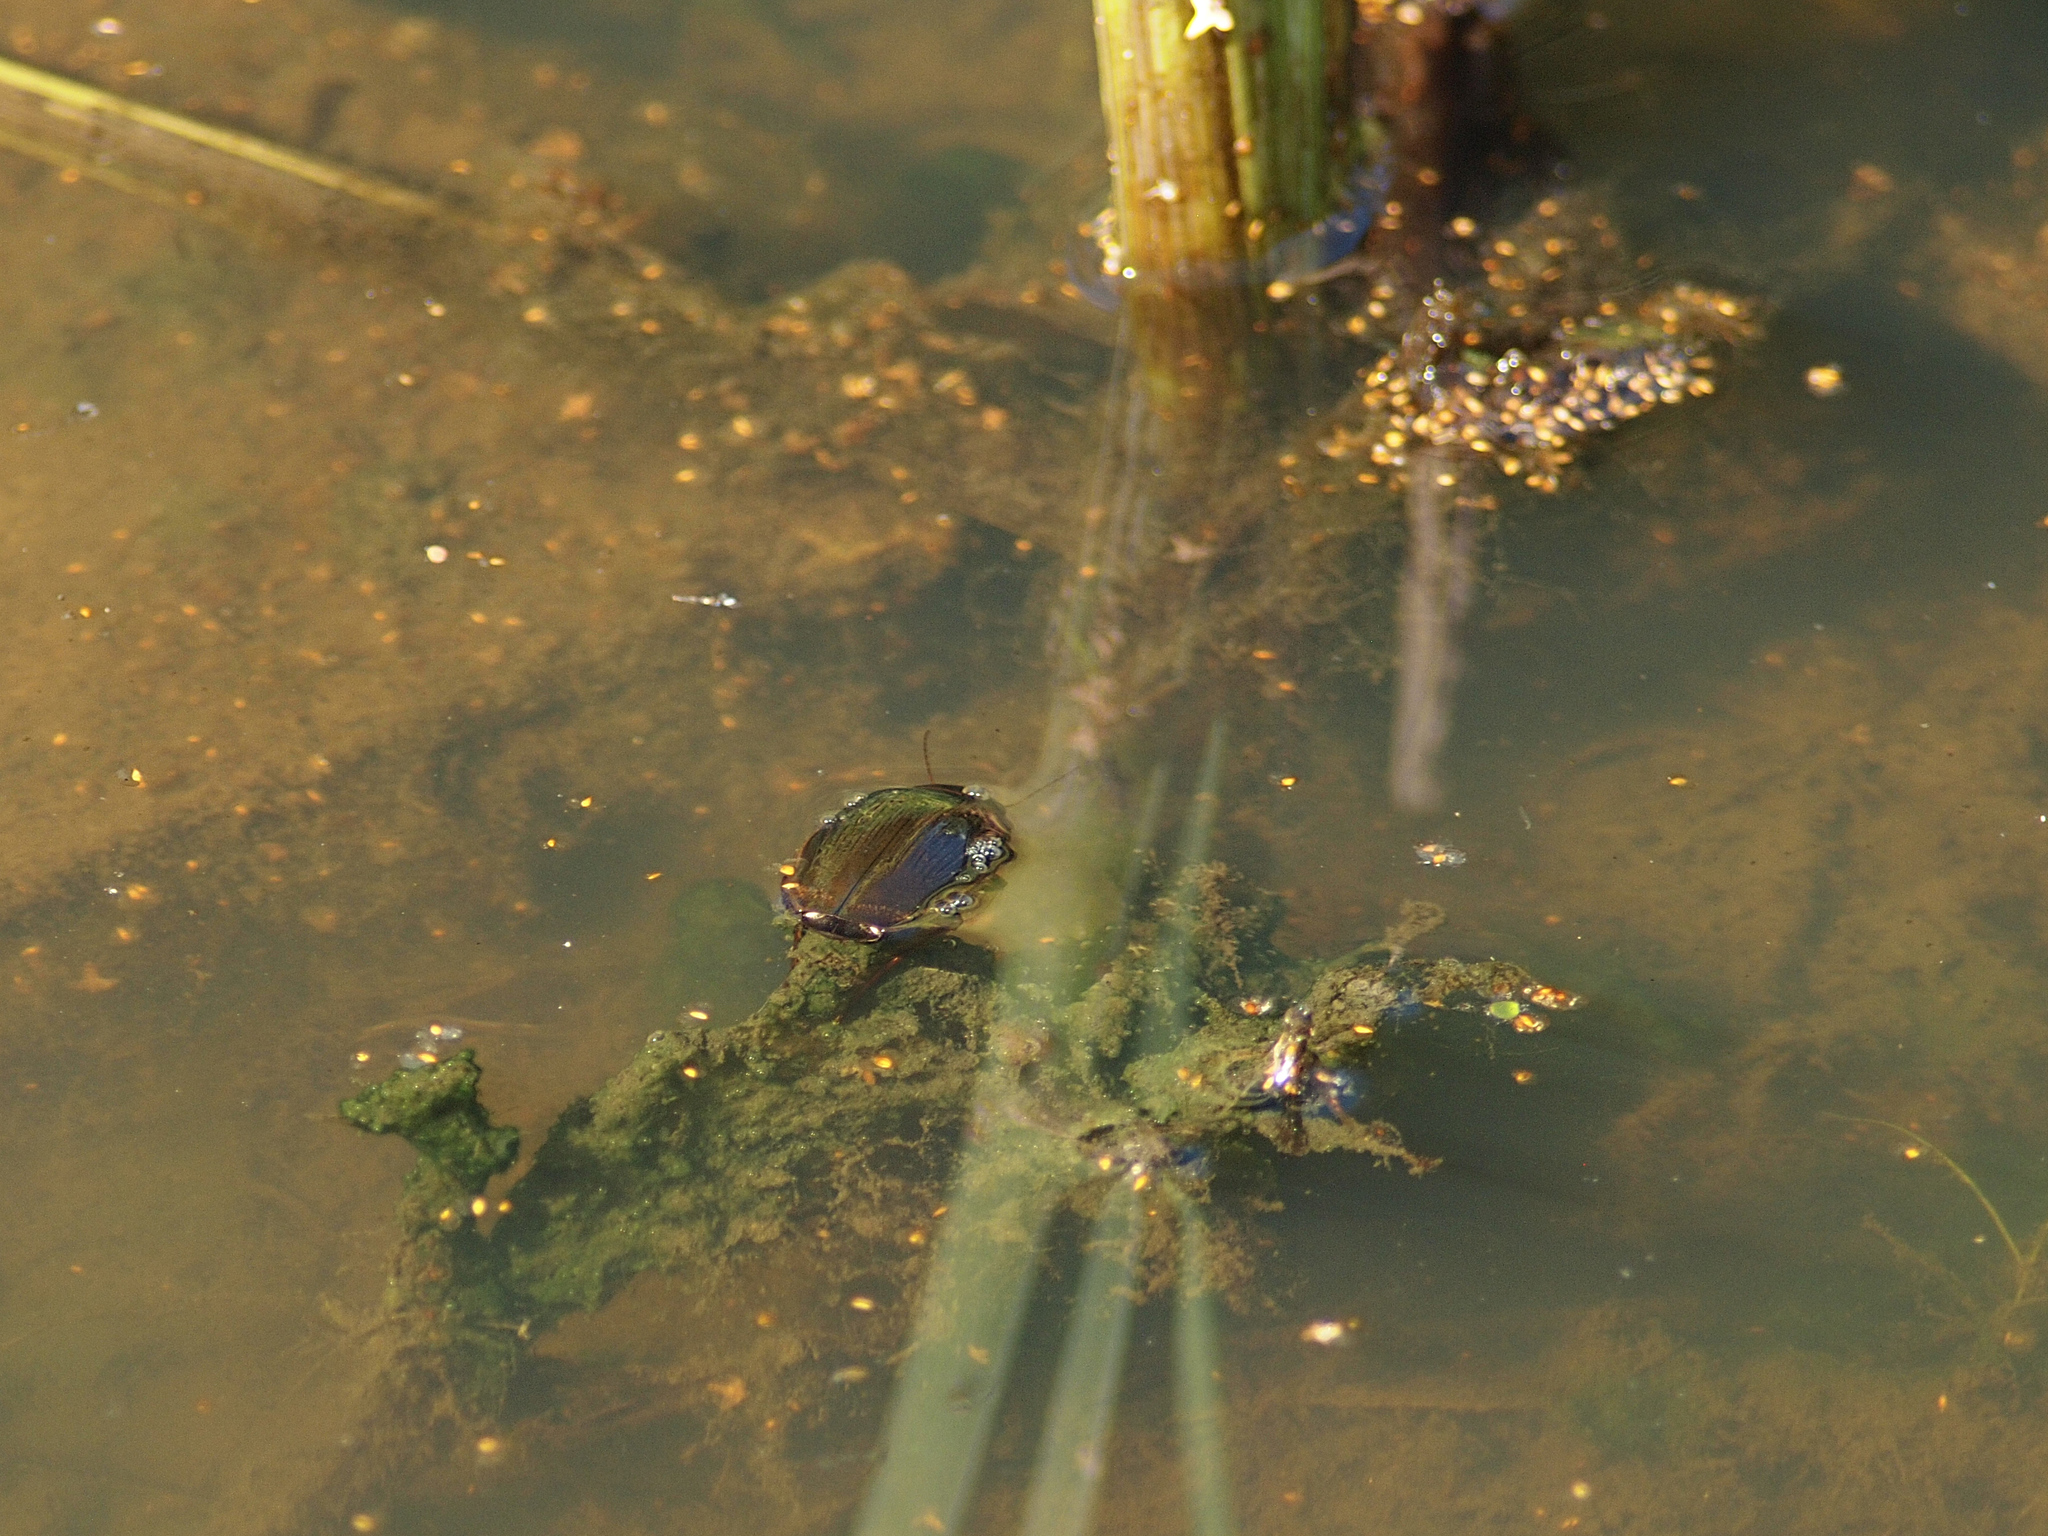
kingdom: Animalia
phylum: Arthropoda
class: Insecta
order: Coleoptera
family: Dytiscidae
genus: Dytiscus
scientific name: Dytiscus dimidiatus
